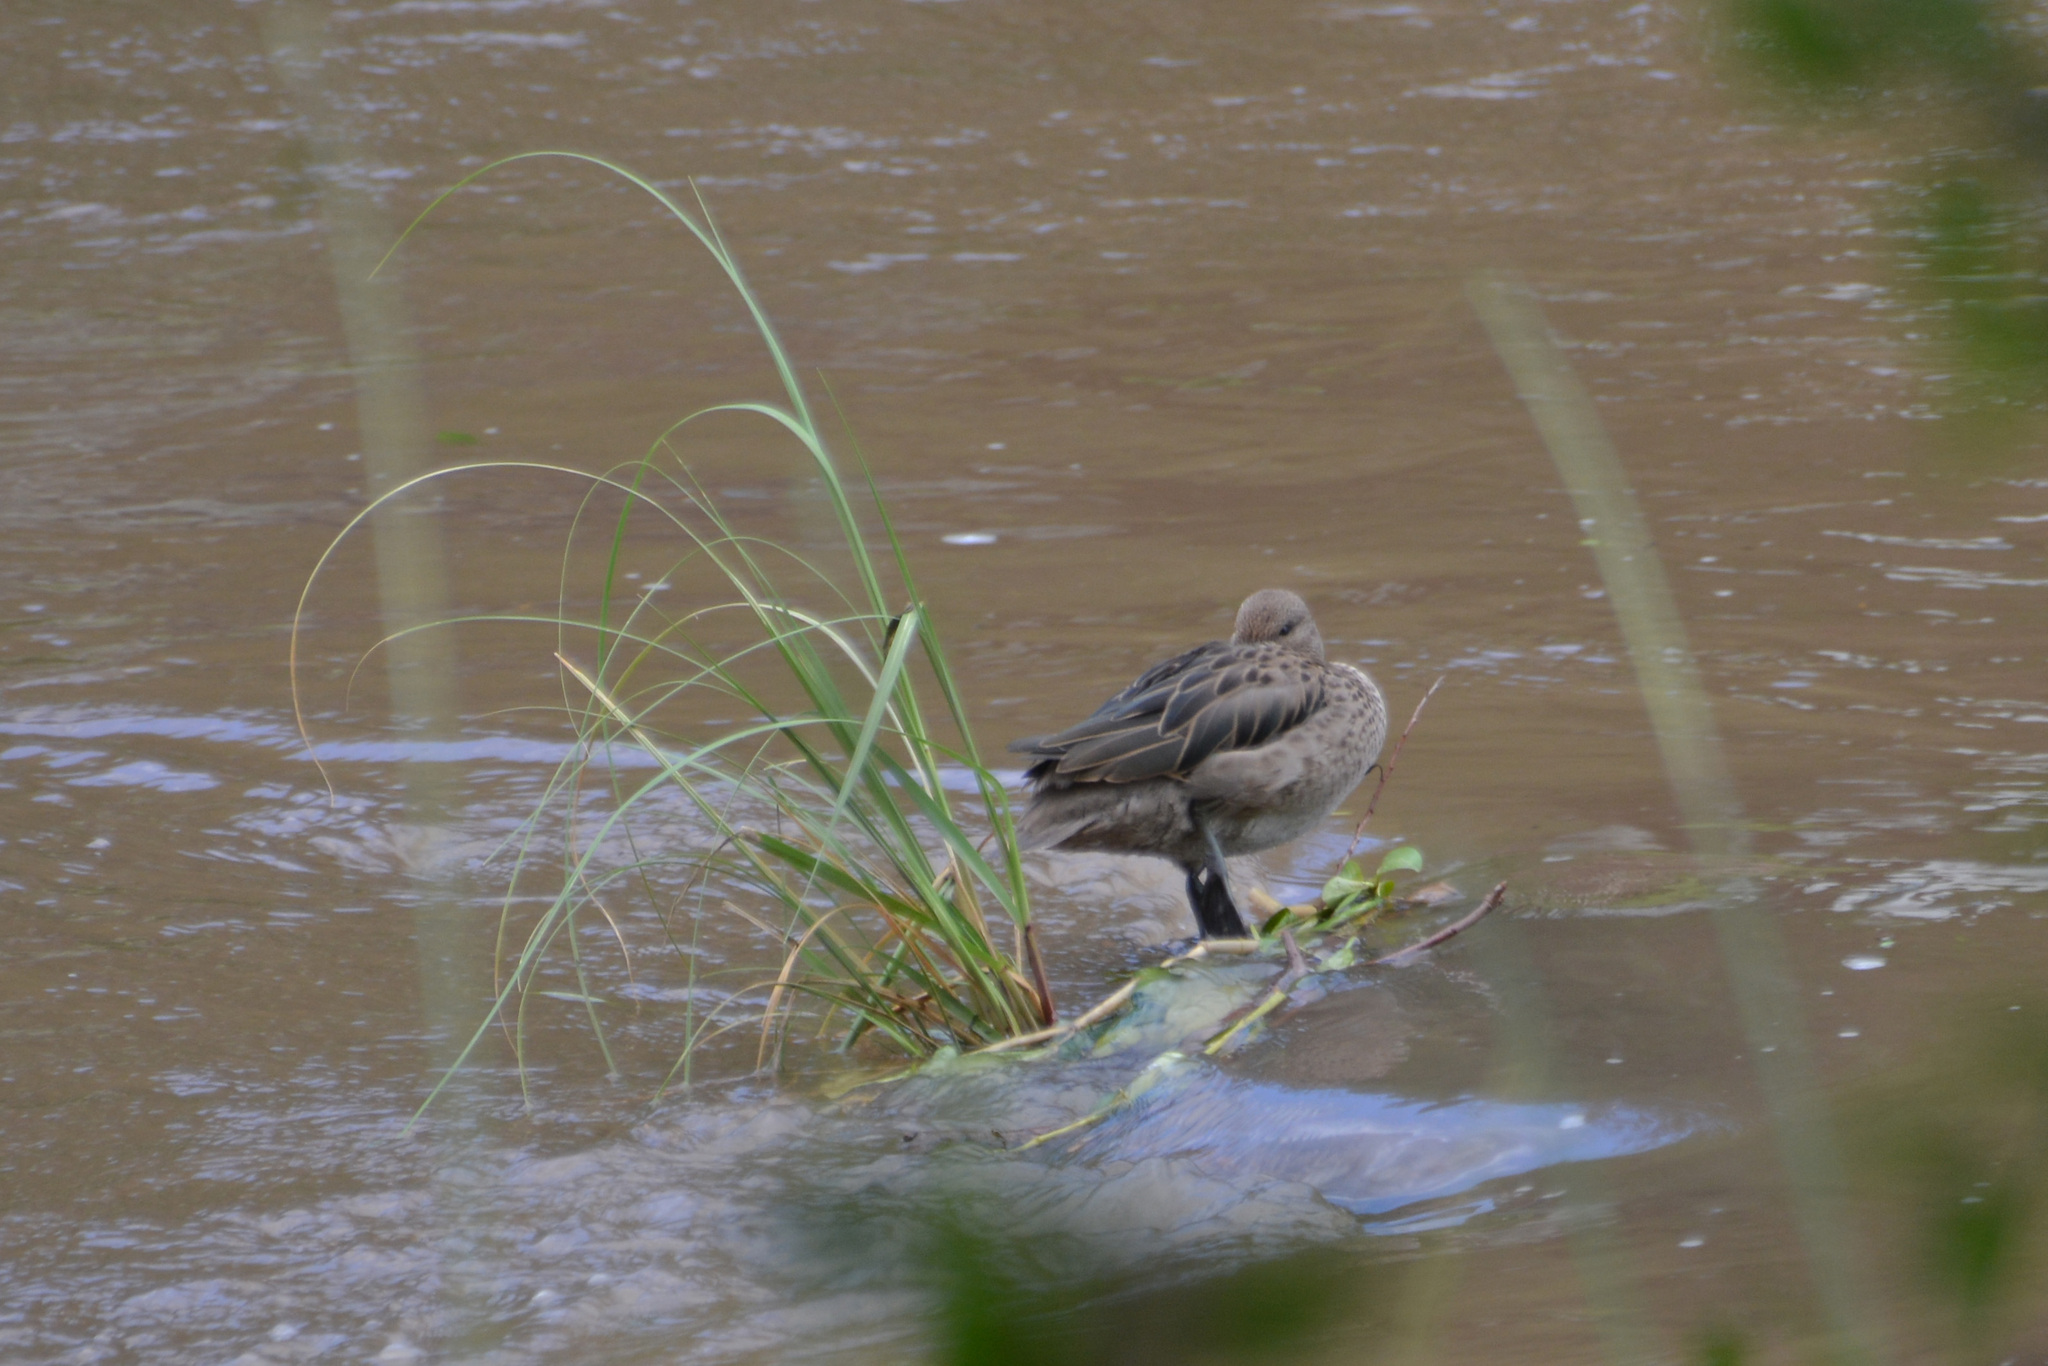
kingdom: Animalia
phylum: Chordata
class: Aves
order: Anseriformes
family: Anatidae
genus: Anas
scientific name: Anas flavirostris
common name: Yellow-billed teal
